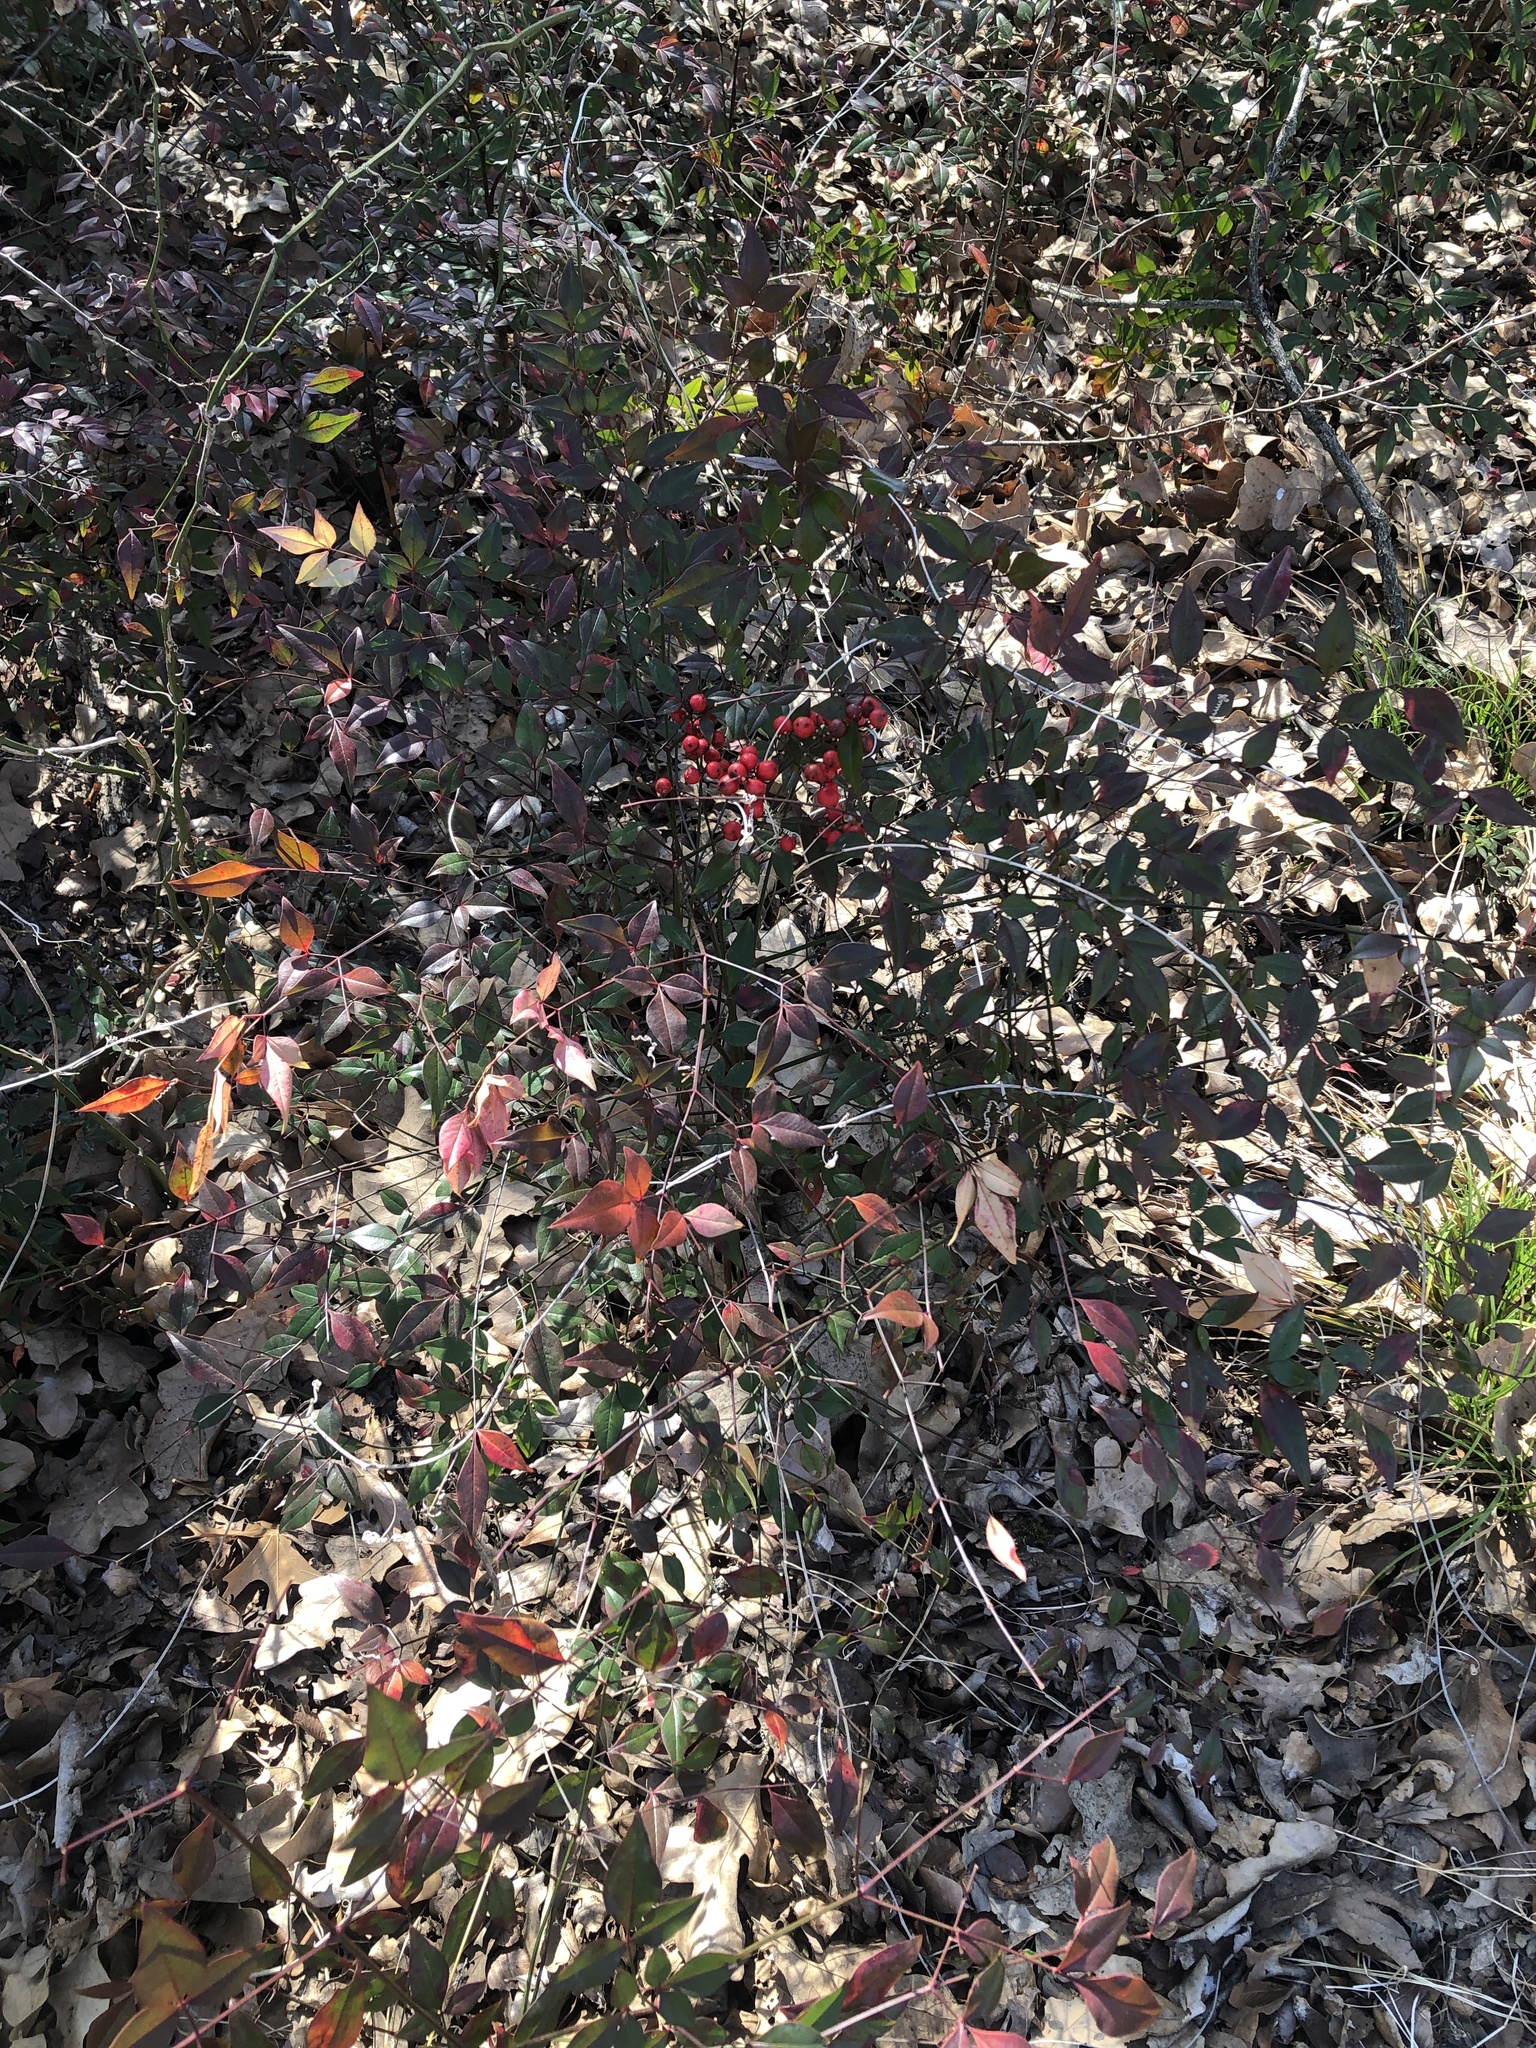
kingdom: Plantae
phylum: Tracheophyta
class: Magnoliopsida
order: Ranunculales
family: Berberidaceae
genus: Nandina
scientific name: Nandina domestica
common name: Sacred bamboo
